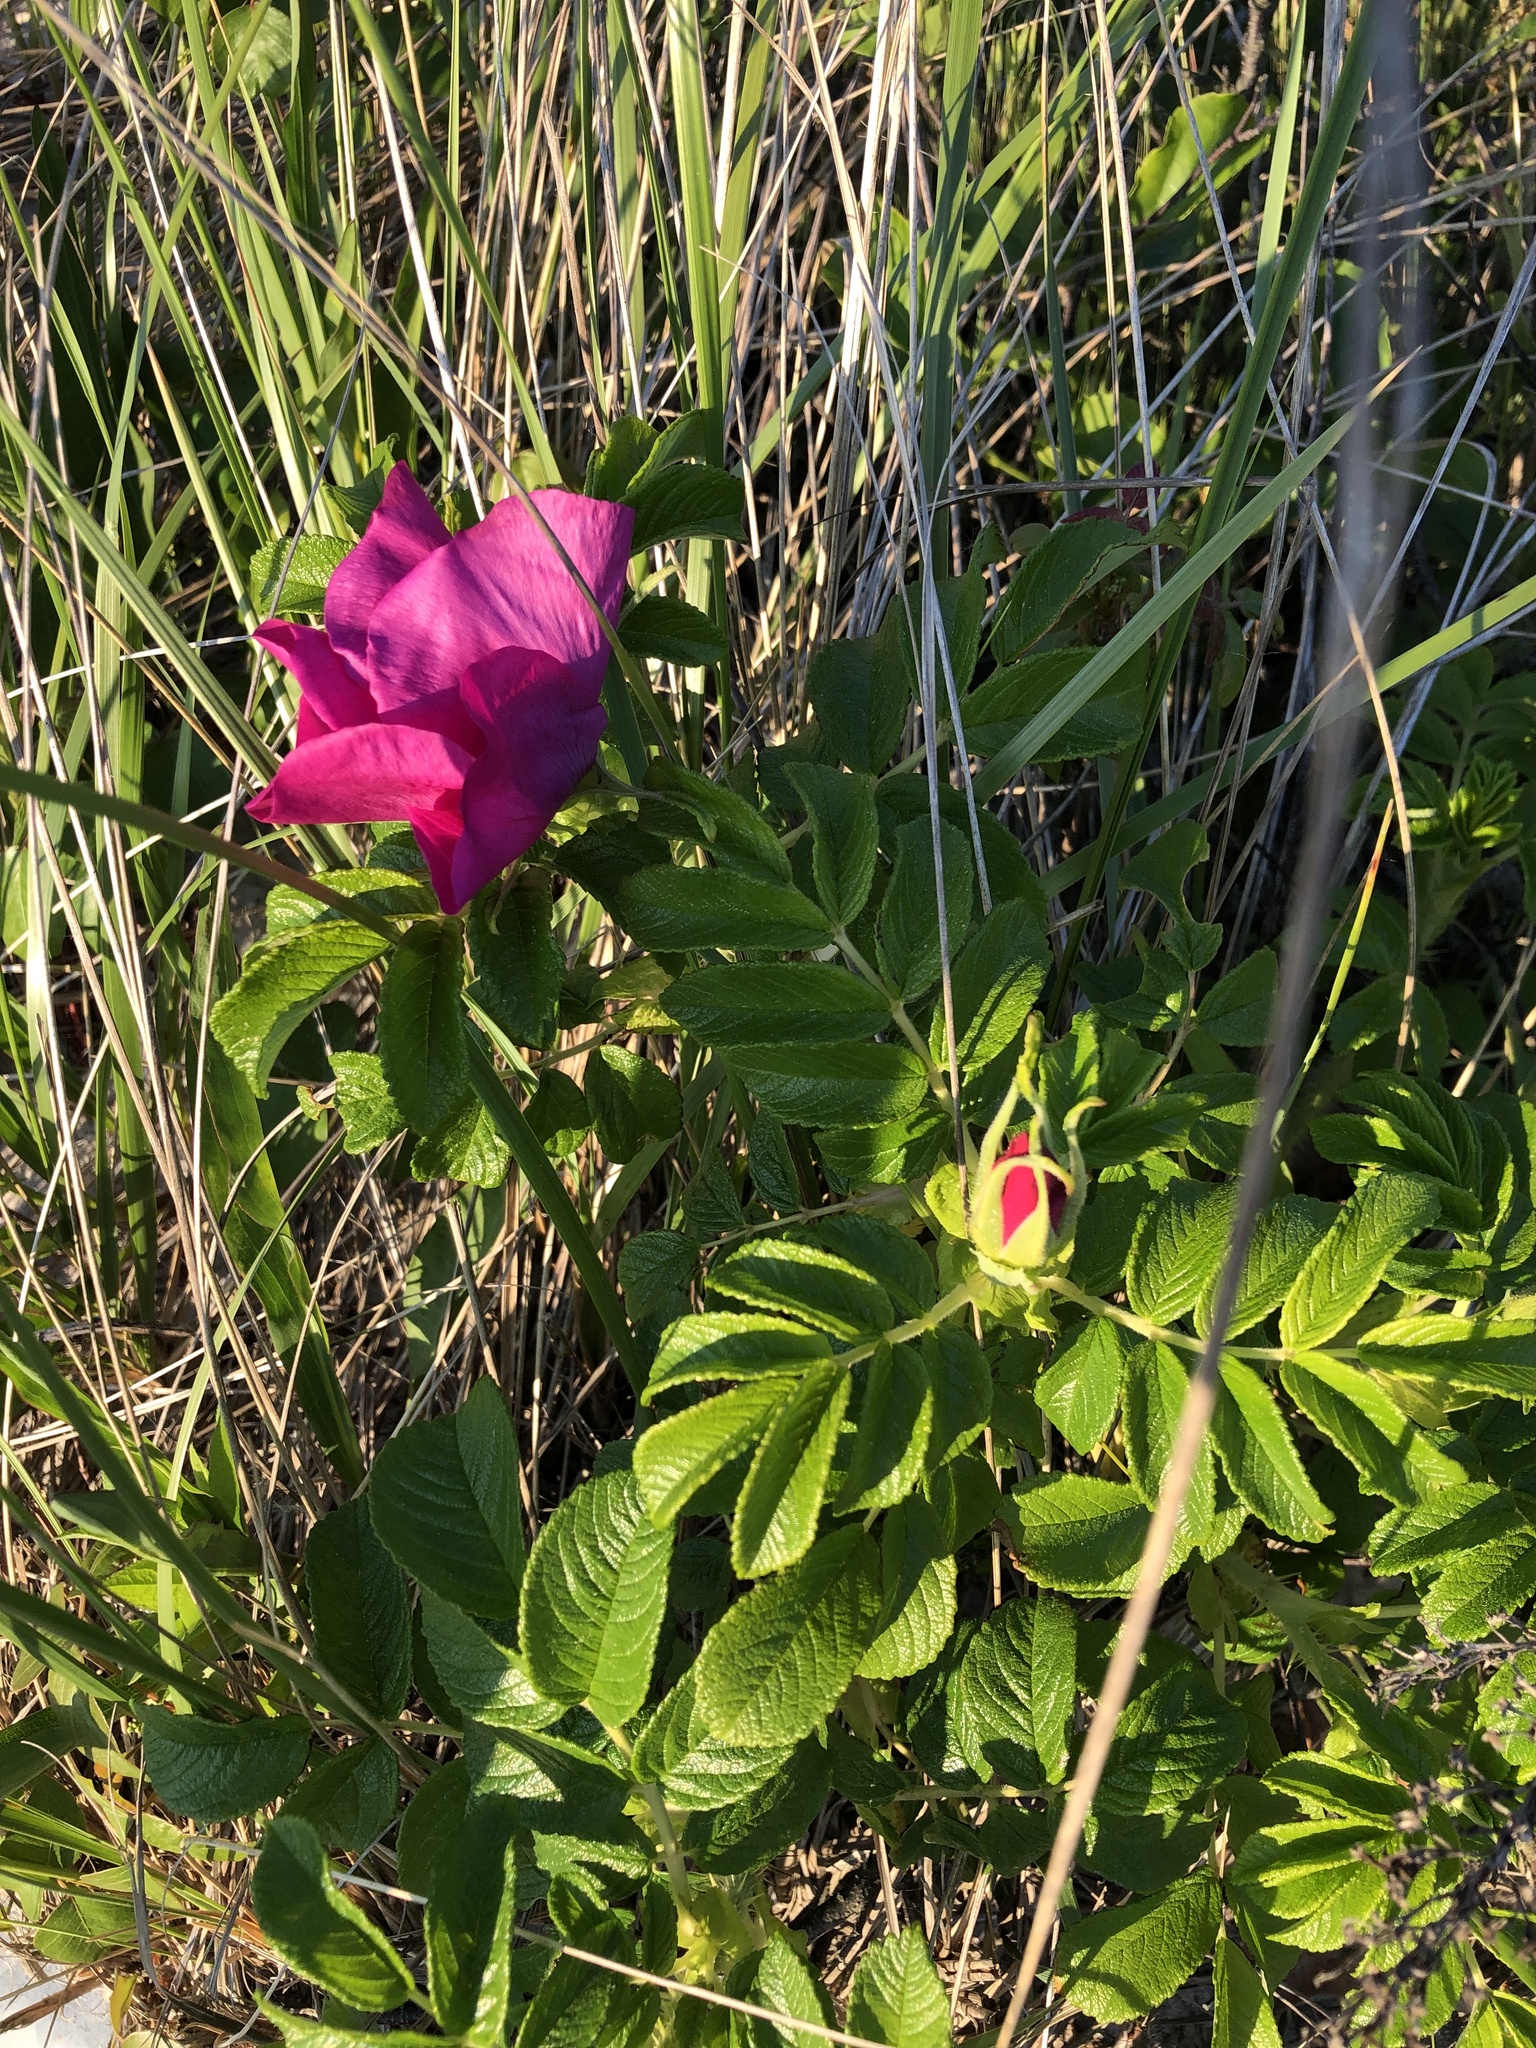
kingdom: Plantae
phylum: Tracheophyta
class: Magnoliopsida
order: Rosales
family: Rosaceae
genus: Rosa
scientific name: Rosa rugosa
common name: Japanese rose
